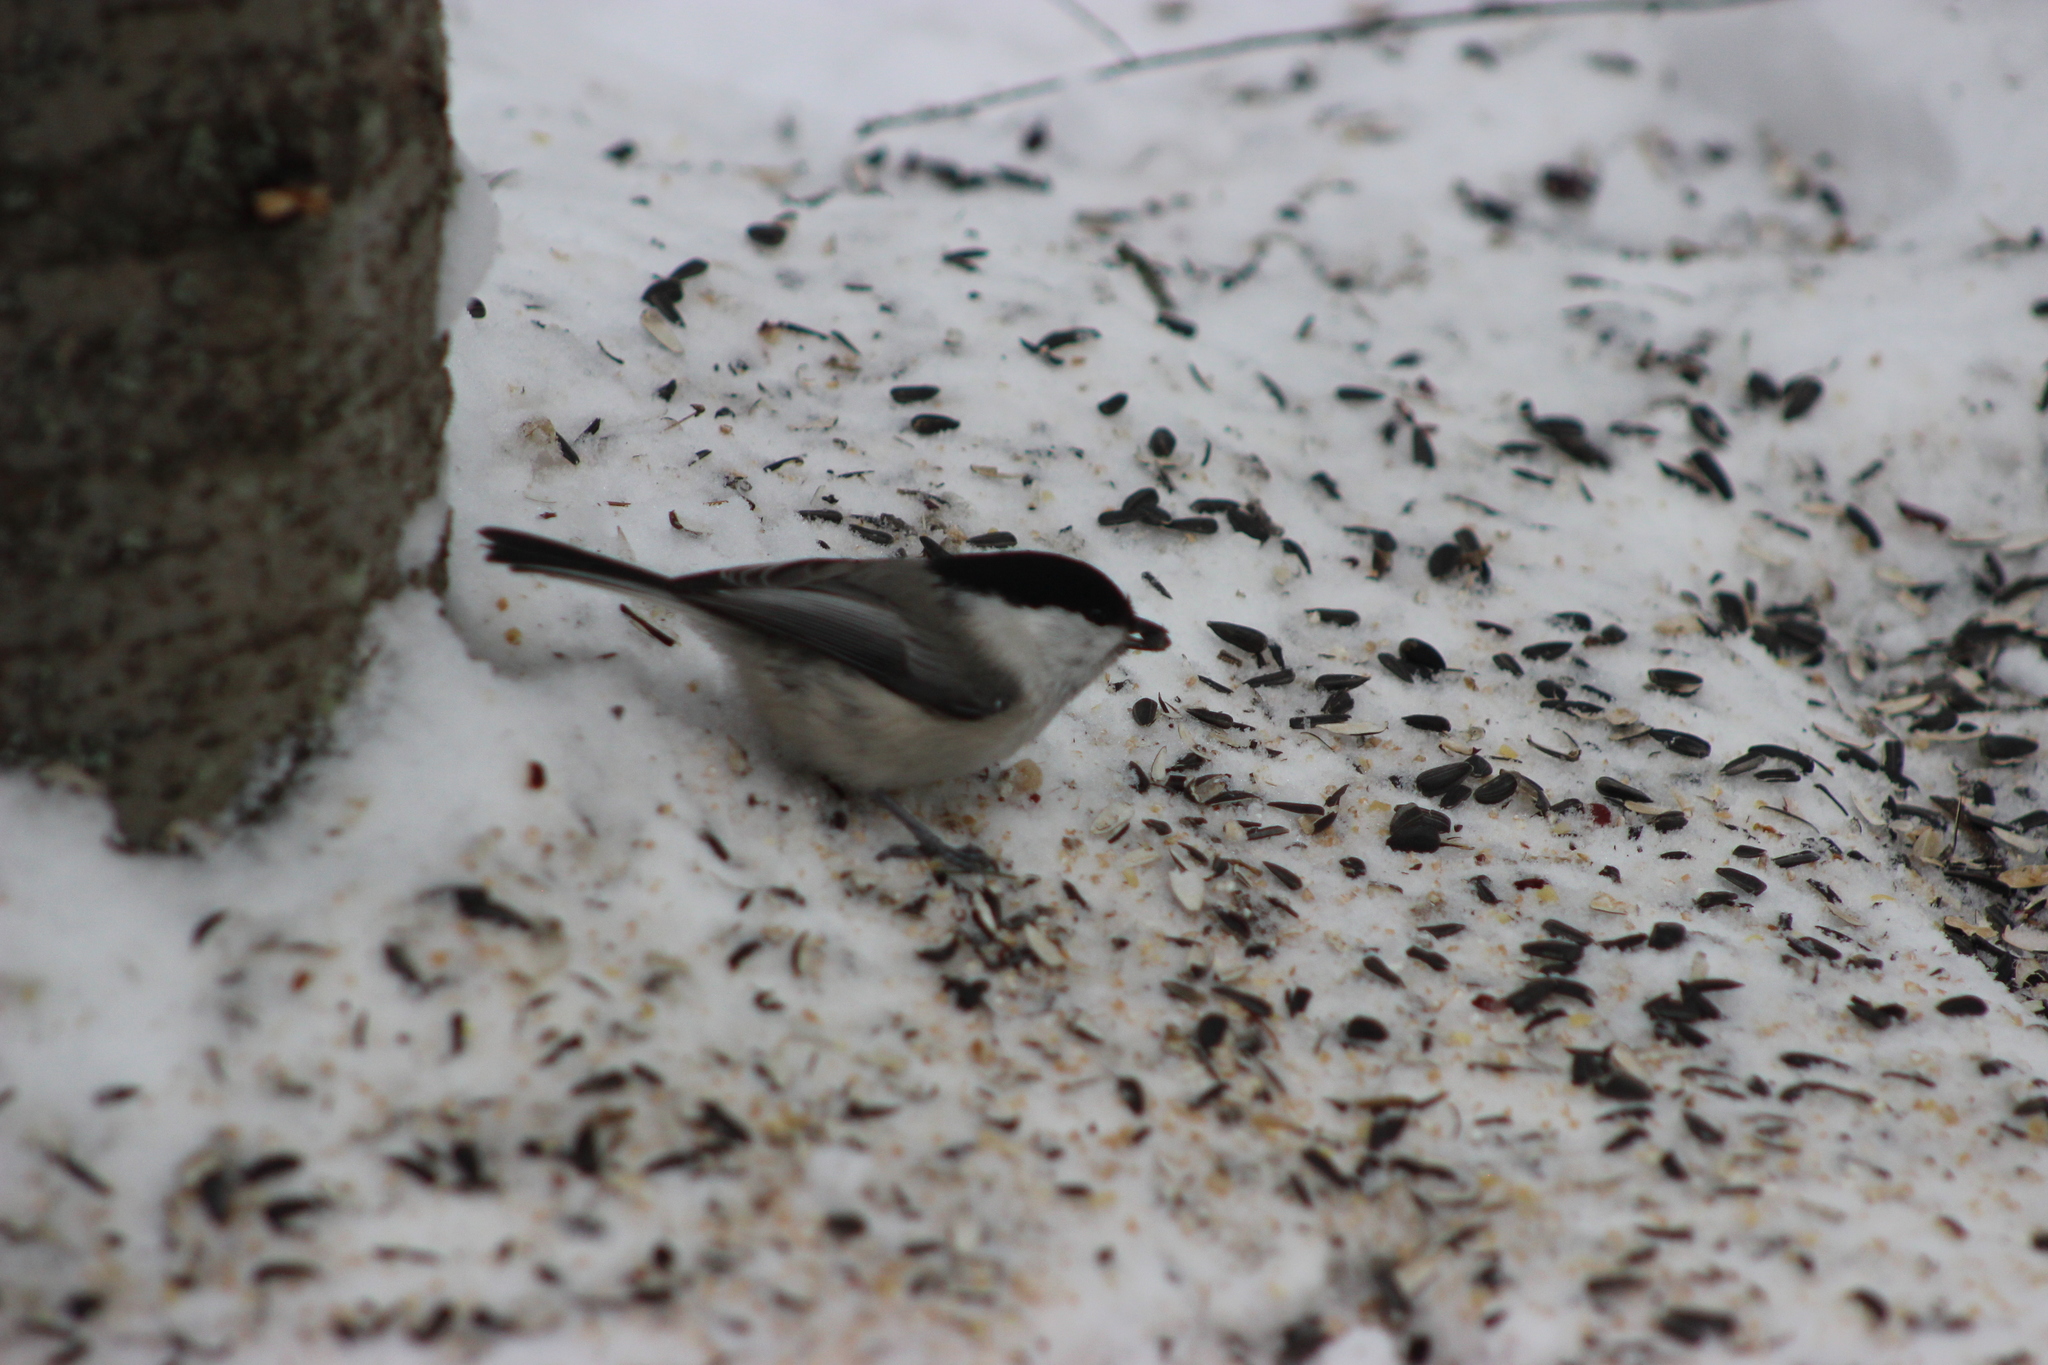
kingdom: Animalia
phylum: Chordata
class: Aves
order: Passeriformes
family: Paridae
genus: Poecile
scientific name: Poecile montanus
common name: Willow tit
